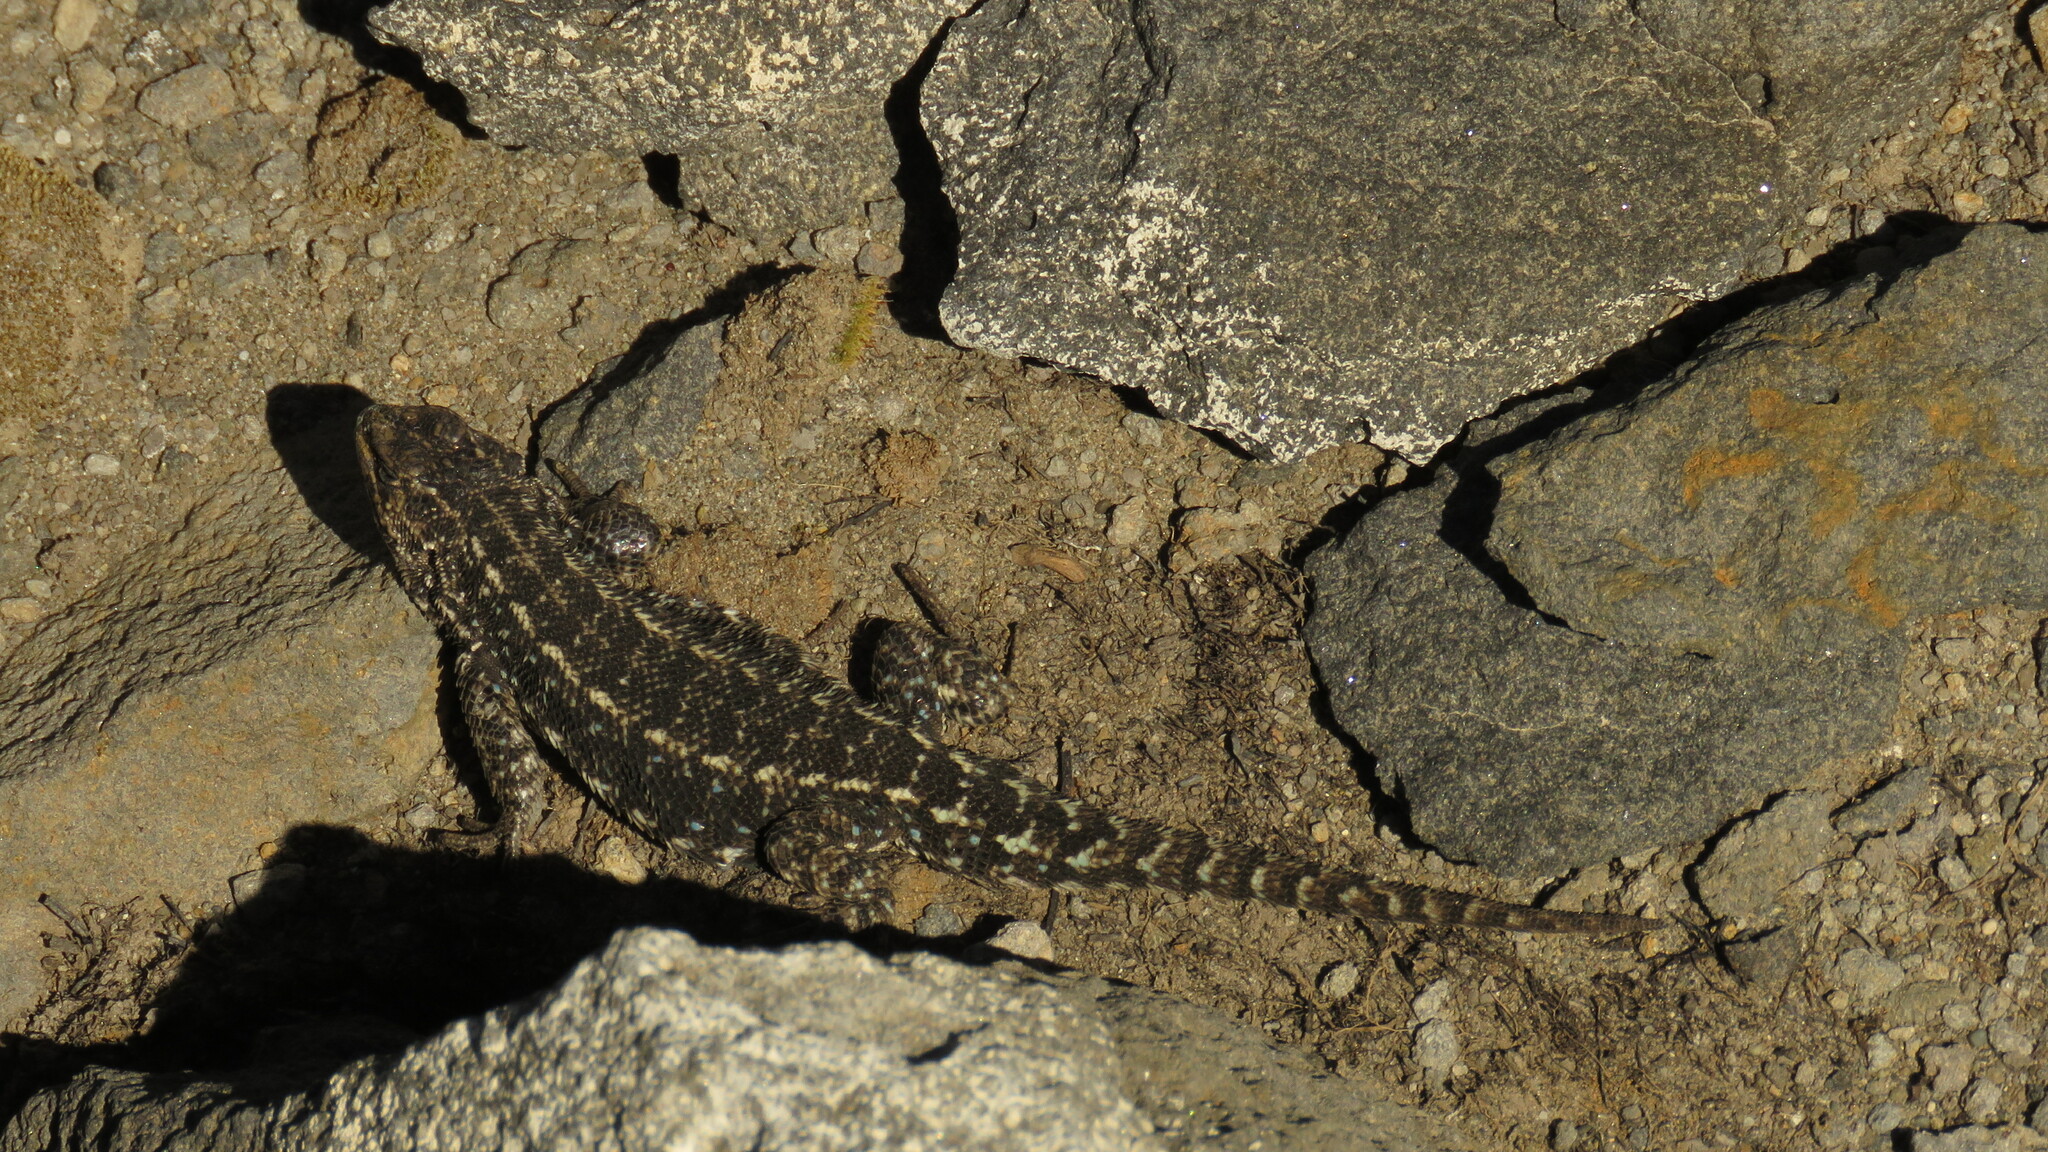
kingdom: Animalia
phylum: Chordata
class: Squamata
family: Liolaemidae
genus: Liolaemus
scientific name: Liolaemus hatcheri
